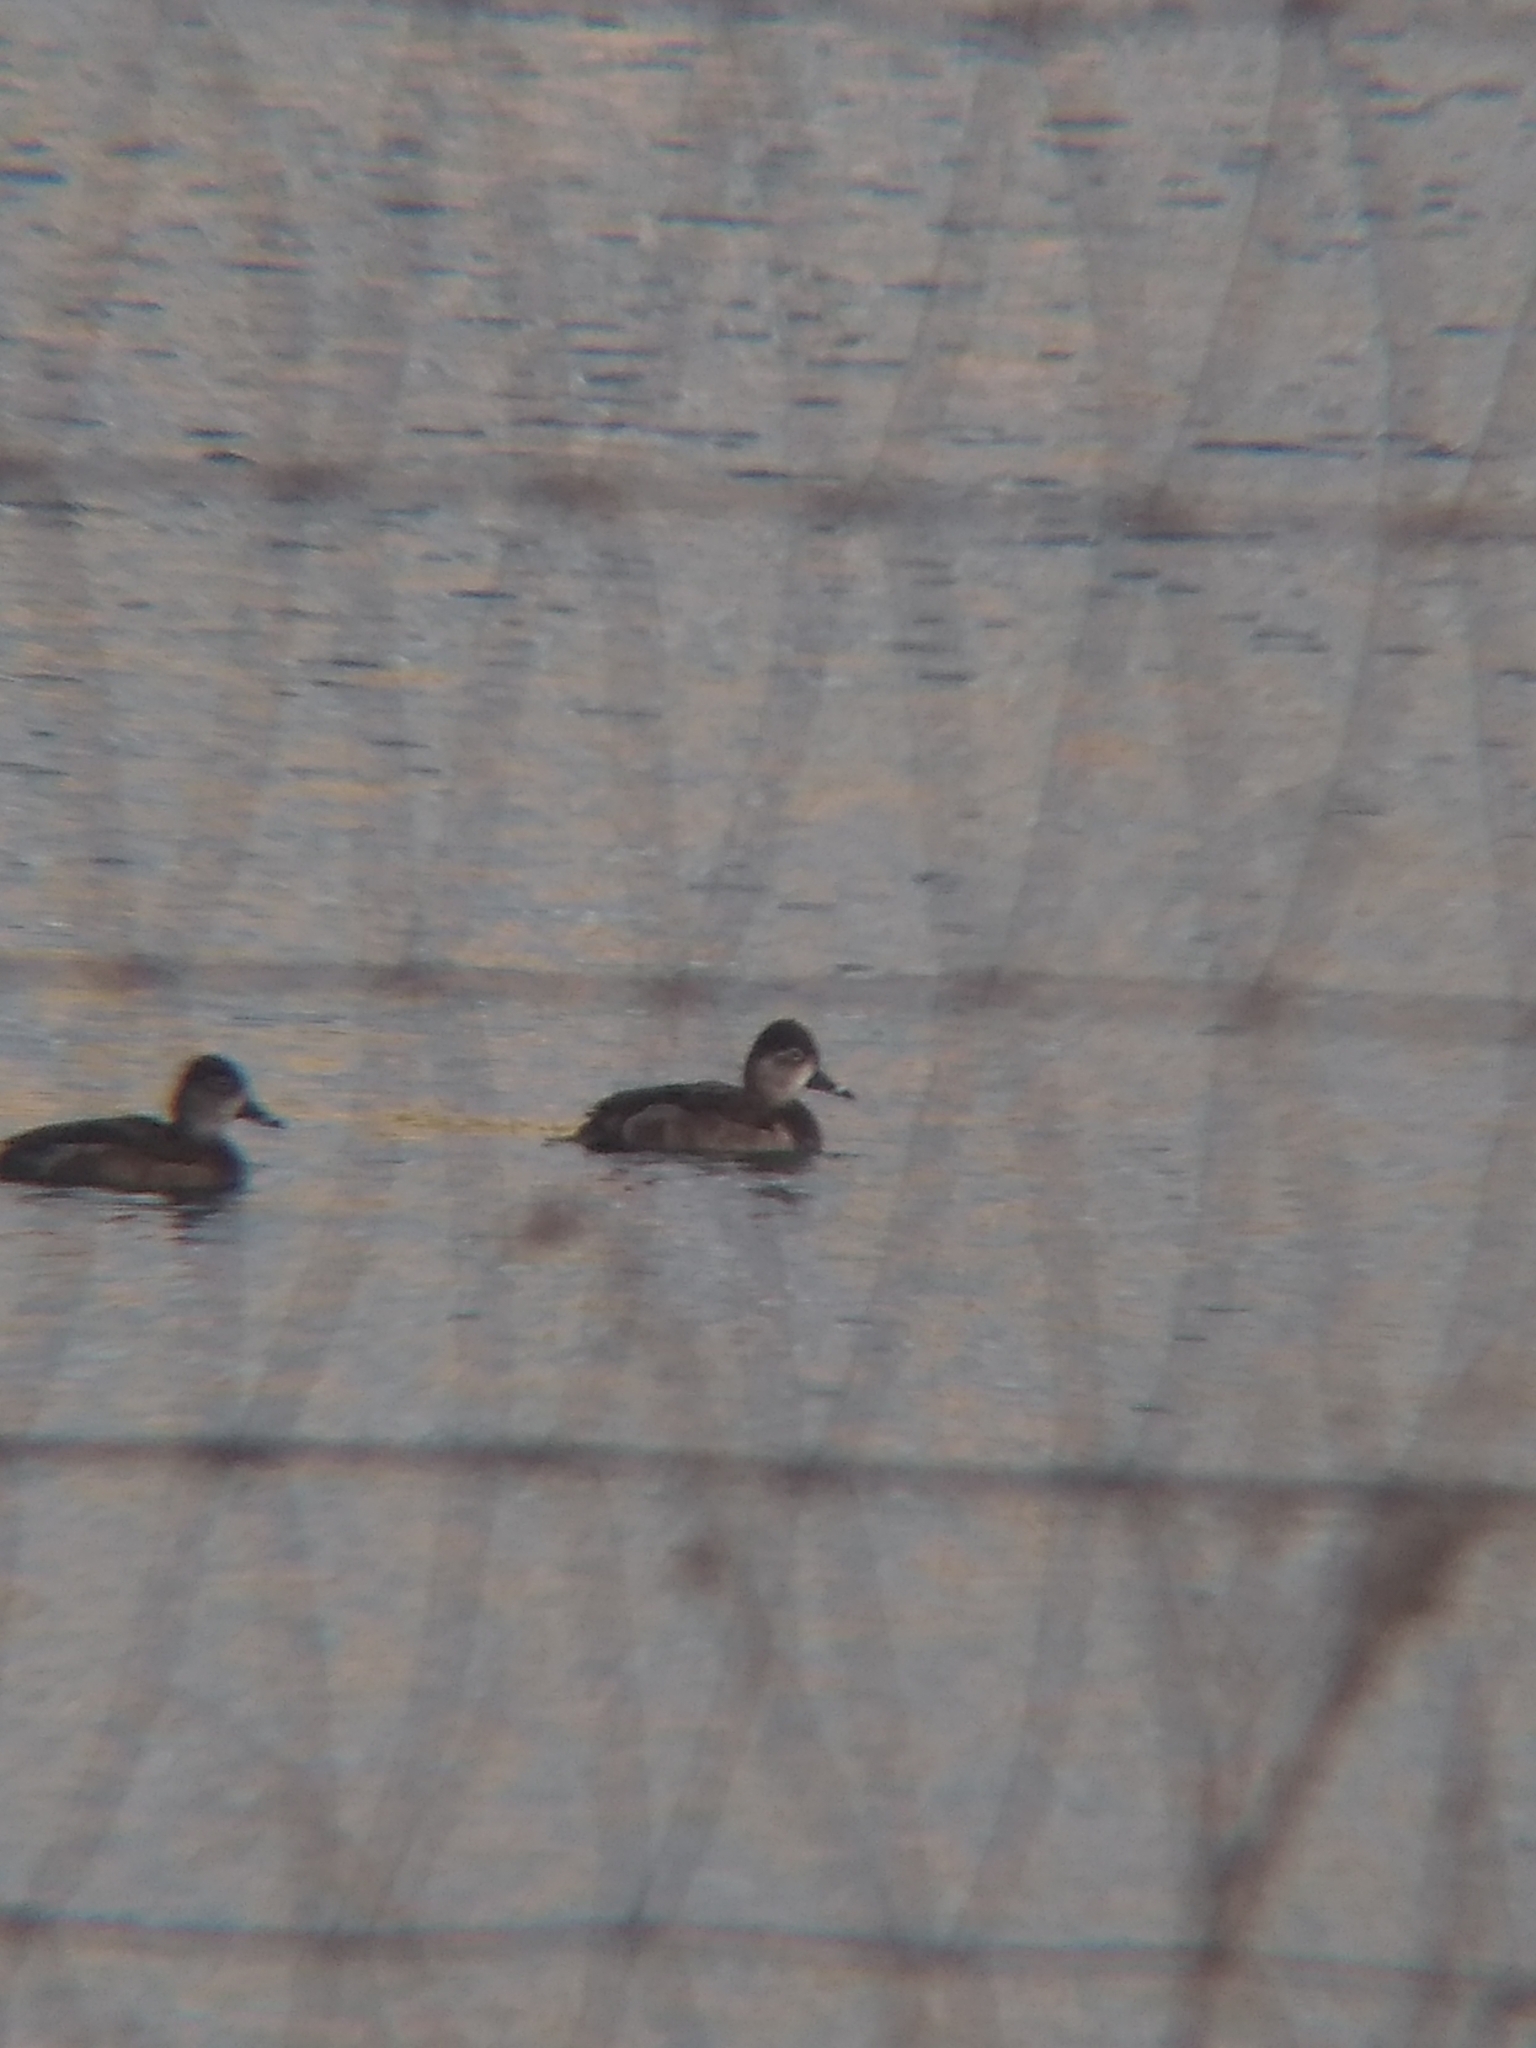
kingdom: Animalia
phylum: Chordata
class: Aves
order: Anseriformes
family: Anatidae
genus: Aythya
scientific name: Aythya collaris
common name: Ring-necked duck
